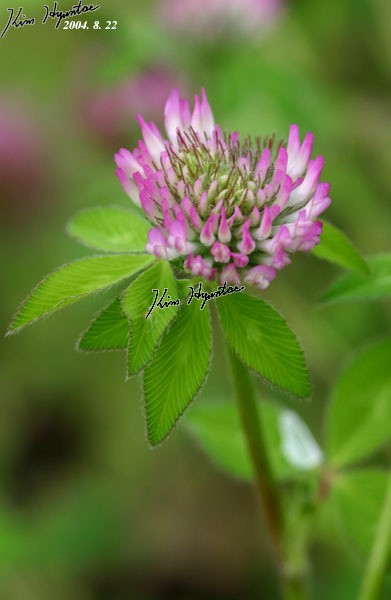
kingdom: Plantae
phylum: Tracheophyta
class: Magnoliopsida
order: Fabales
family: Fabaceae
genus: Trifolium
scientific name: Trifolium pratense
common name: Red clover
